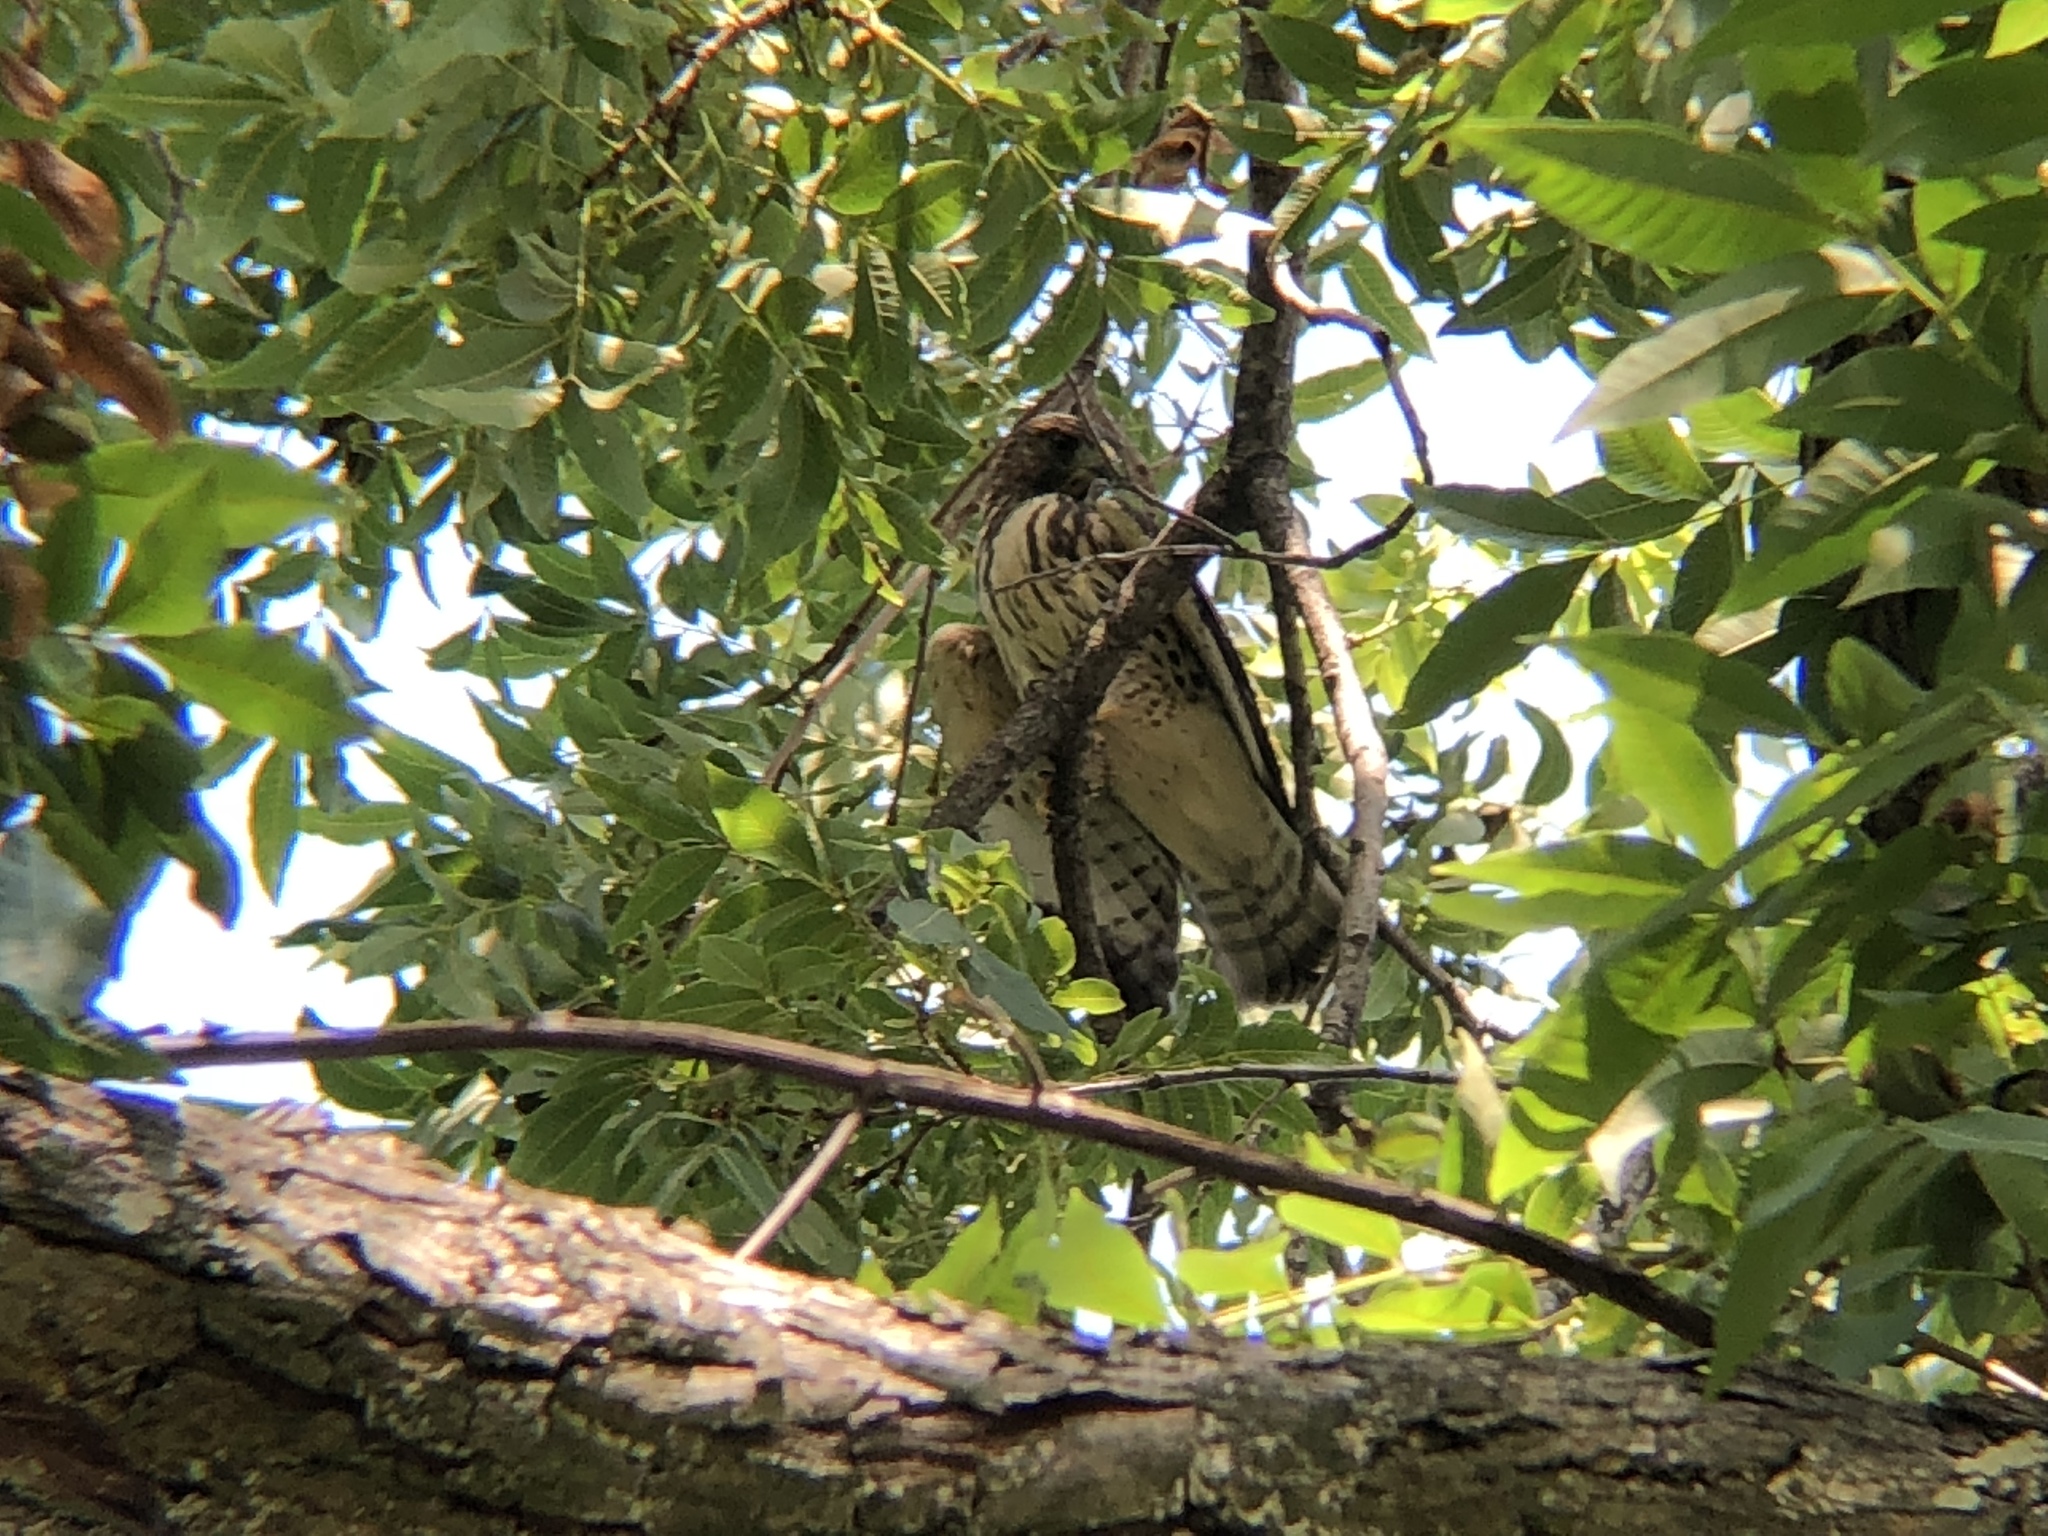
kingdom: Animalia
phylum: Chordata
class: Aves
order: Accipitriformes
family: Accipitridae
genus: Buteo
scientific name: Buteo platypterus
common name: Broad-winged hawk
